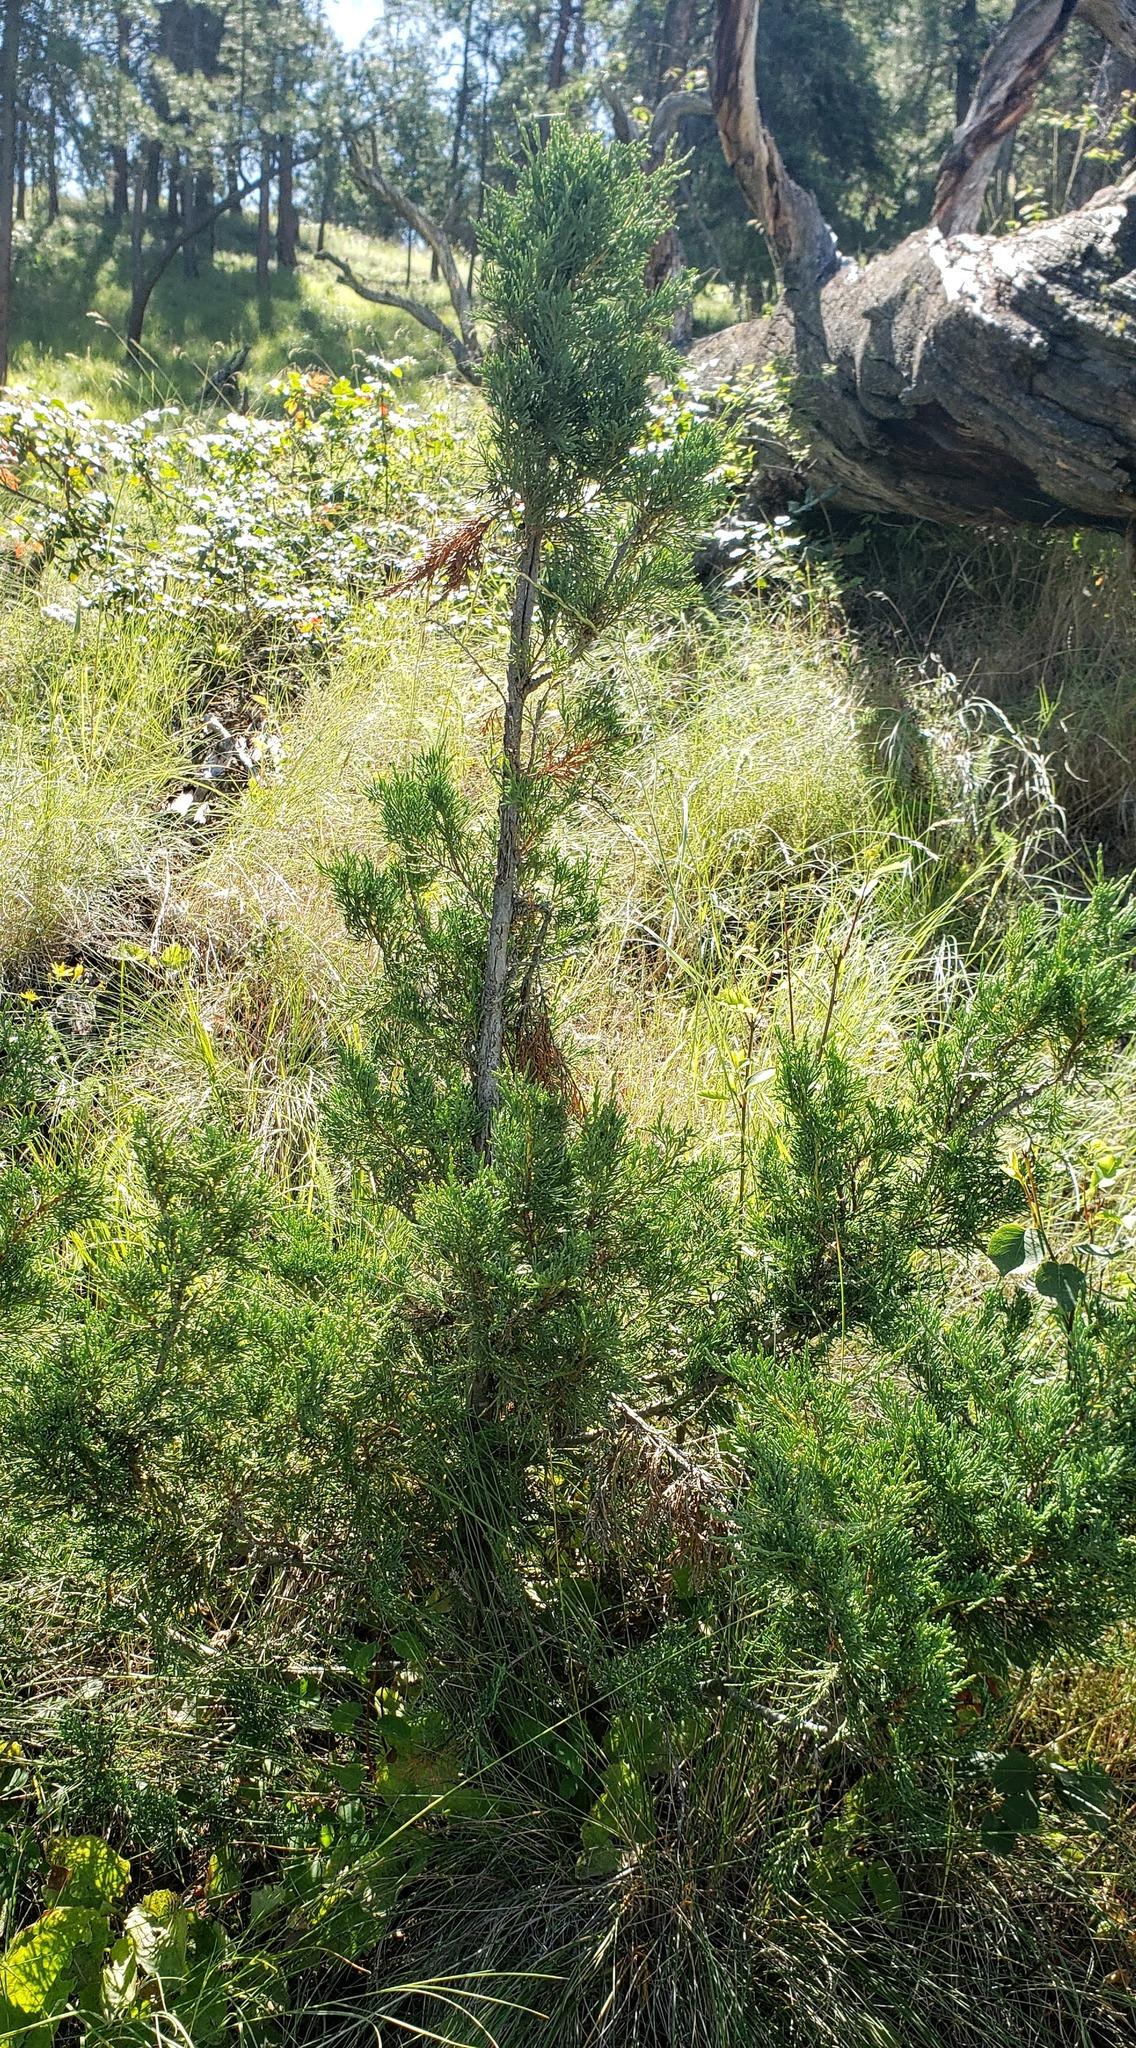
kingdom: Plantae
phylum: Tracheophyta
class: Pinopsida
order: Pinales
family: Cupressaceae
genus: Juniperus
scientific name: Juniperus scopulorum
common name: Rocky mountain juniper
